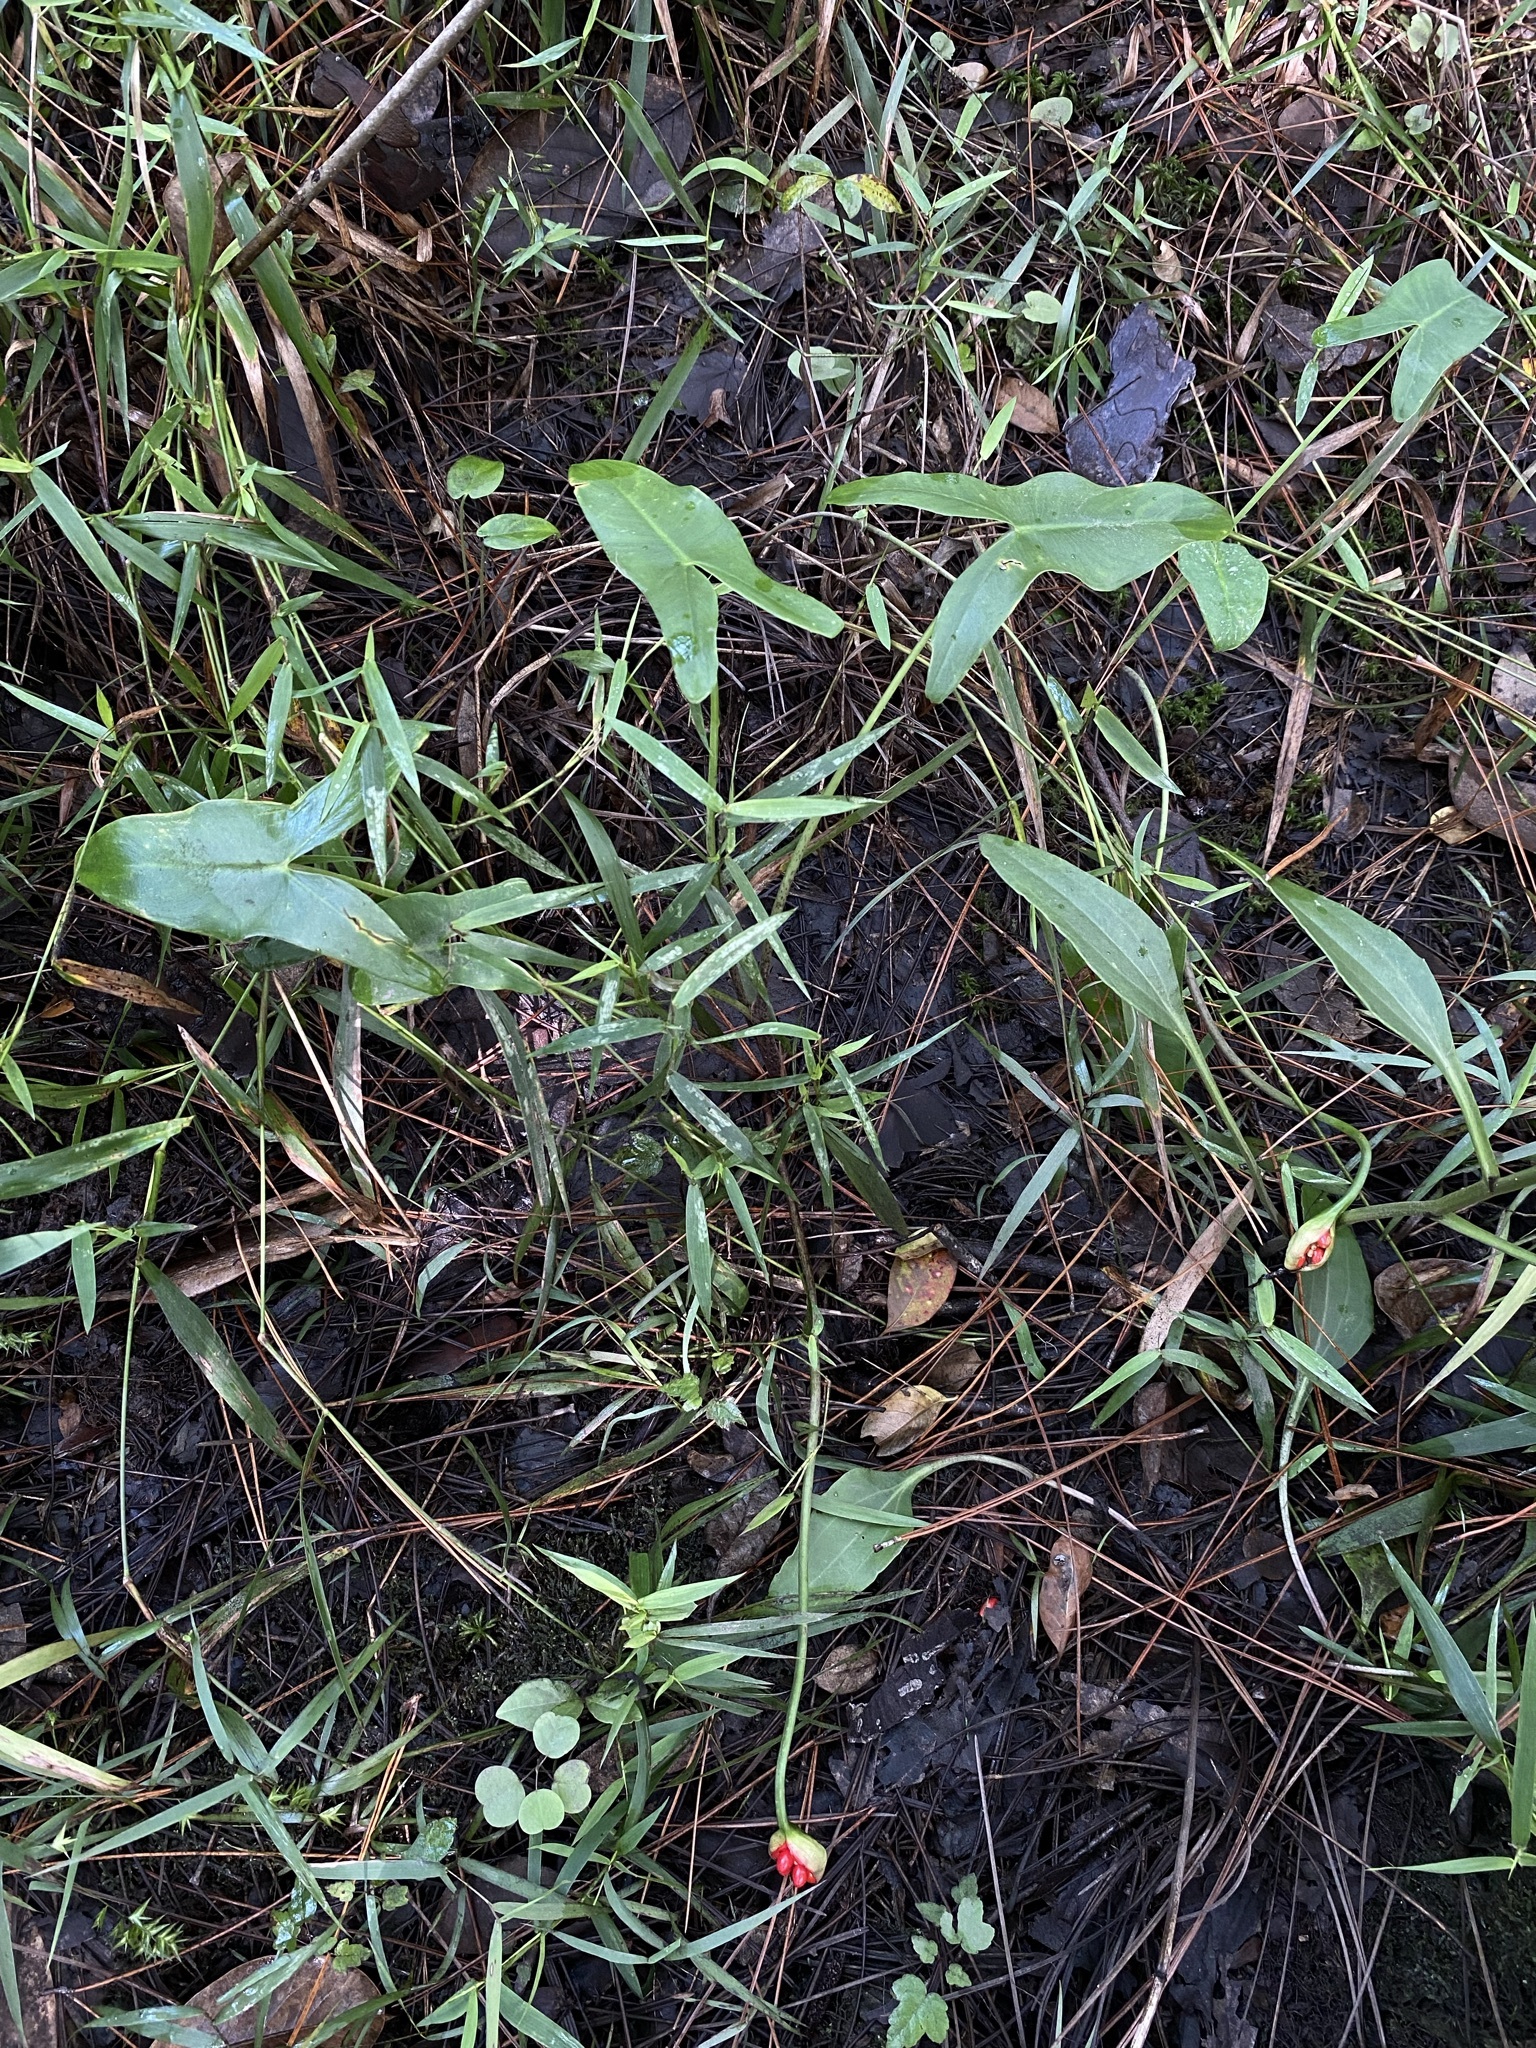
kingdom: Plantae
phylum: Tracheophyta
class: Liliopsida
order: Alismatales
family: Araceae
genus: Peltandra
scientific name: Peltandra sagittifolia
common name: White arrow arum
